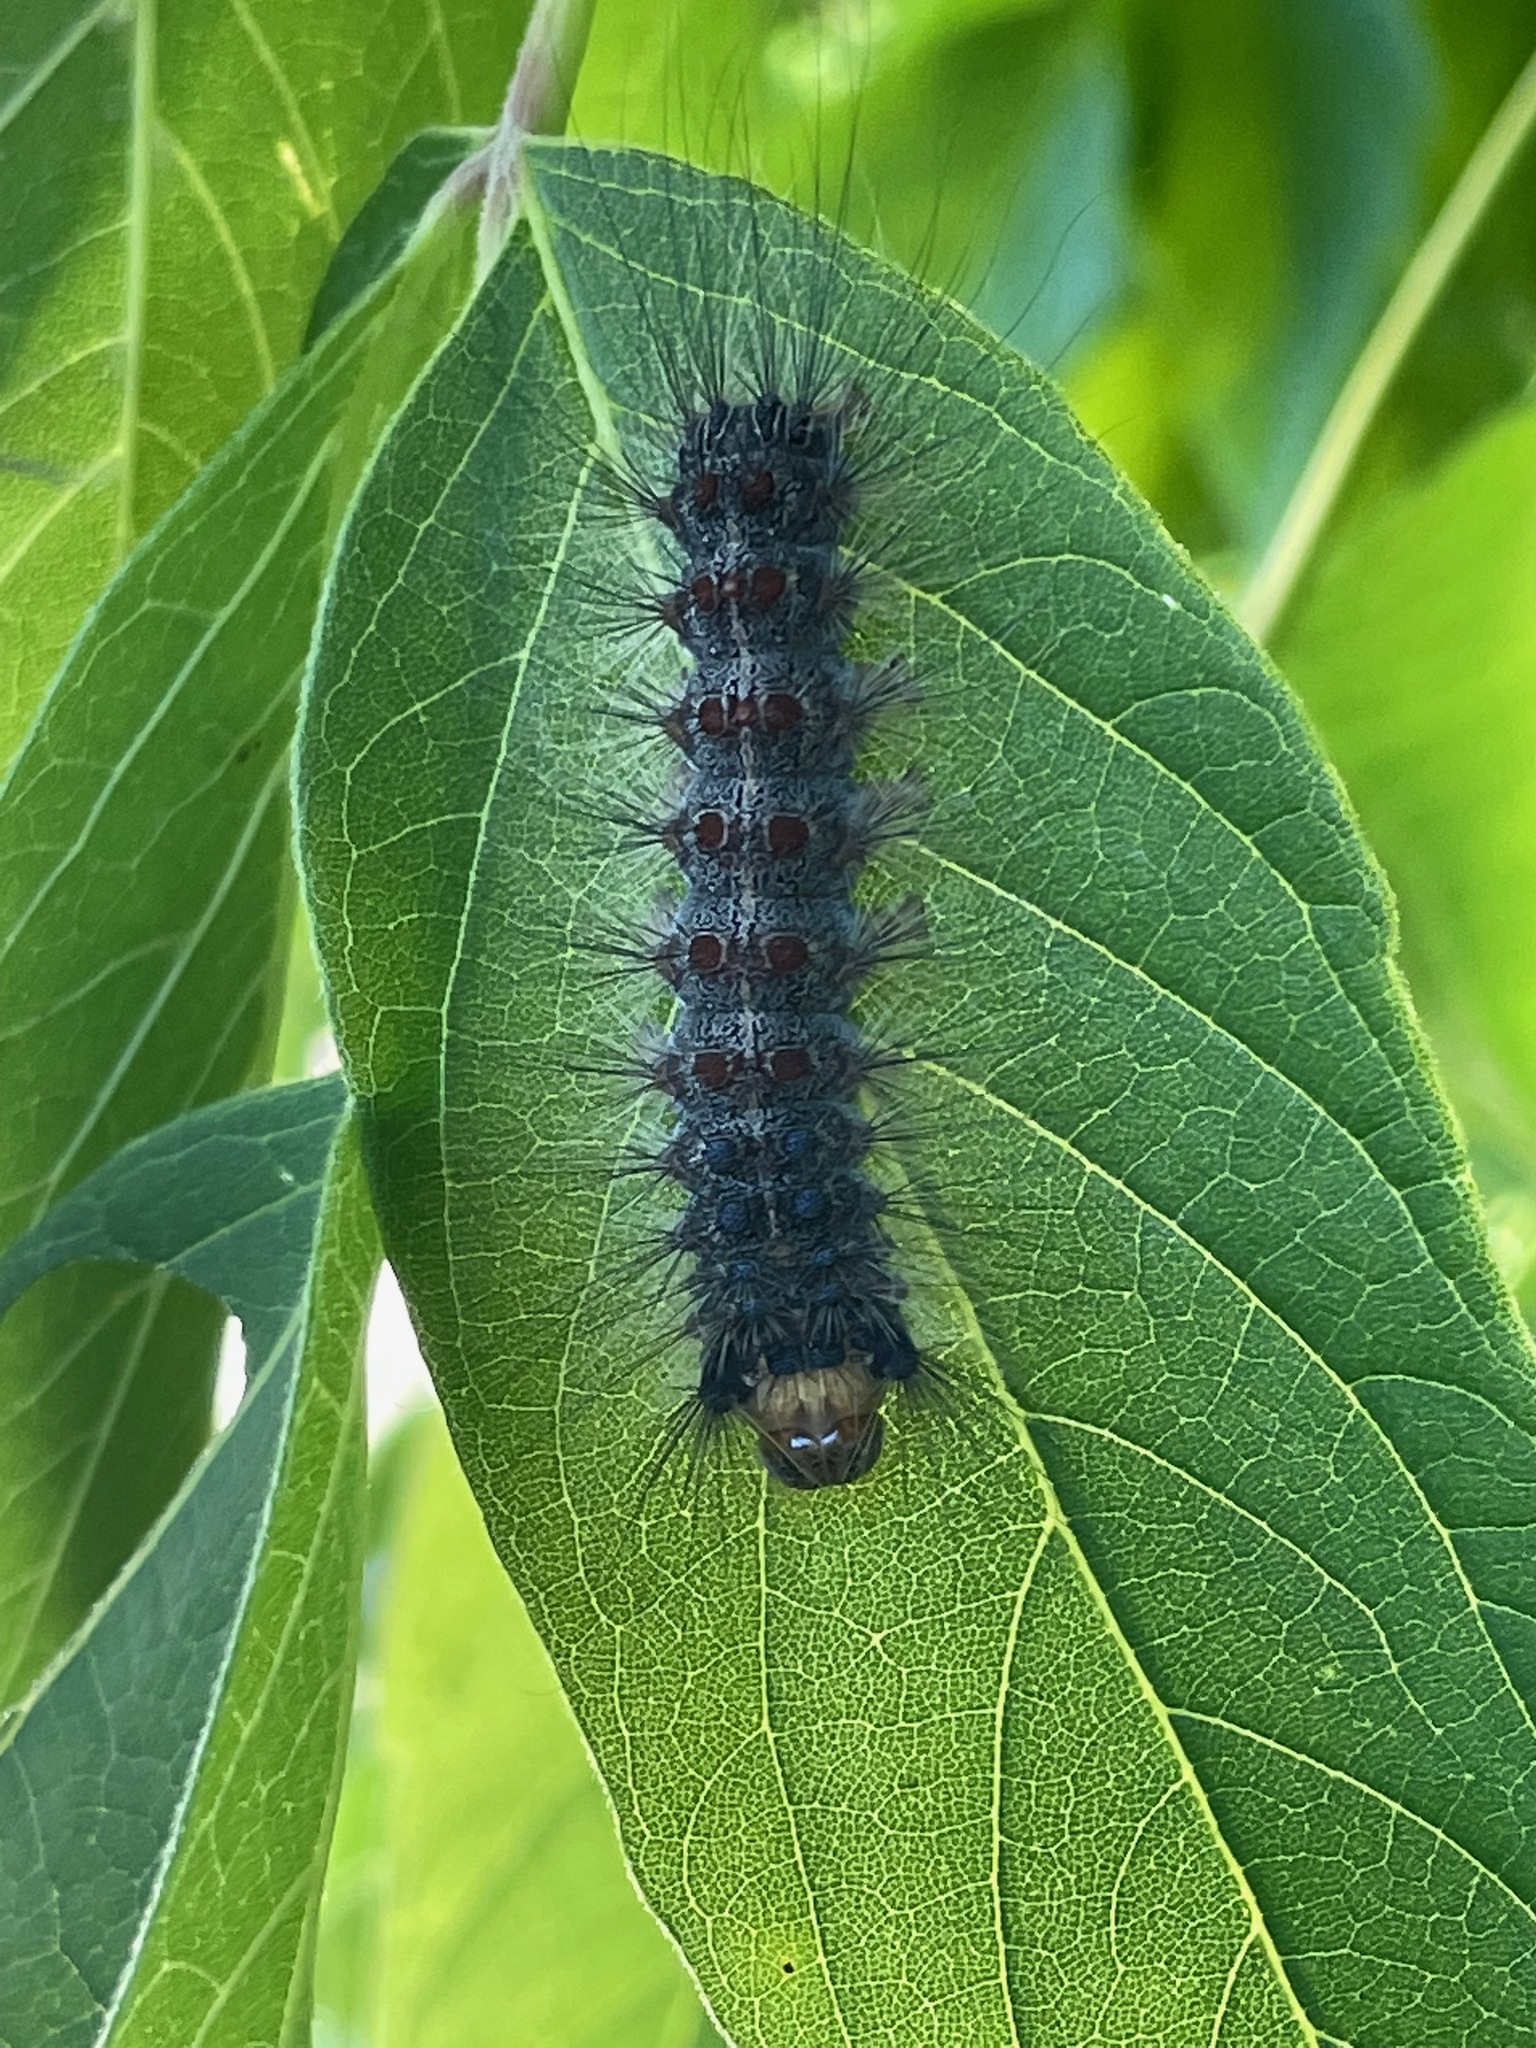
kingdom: Animalia
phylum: Arthropoda
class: Insecta
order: Lepidoptera
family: Erebidae
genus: Lymantria
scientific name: Lymantria dispar
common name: Gypsy moth
